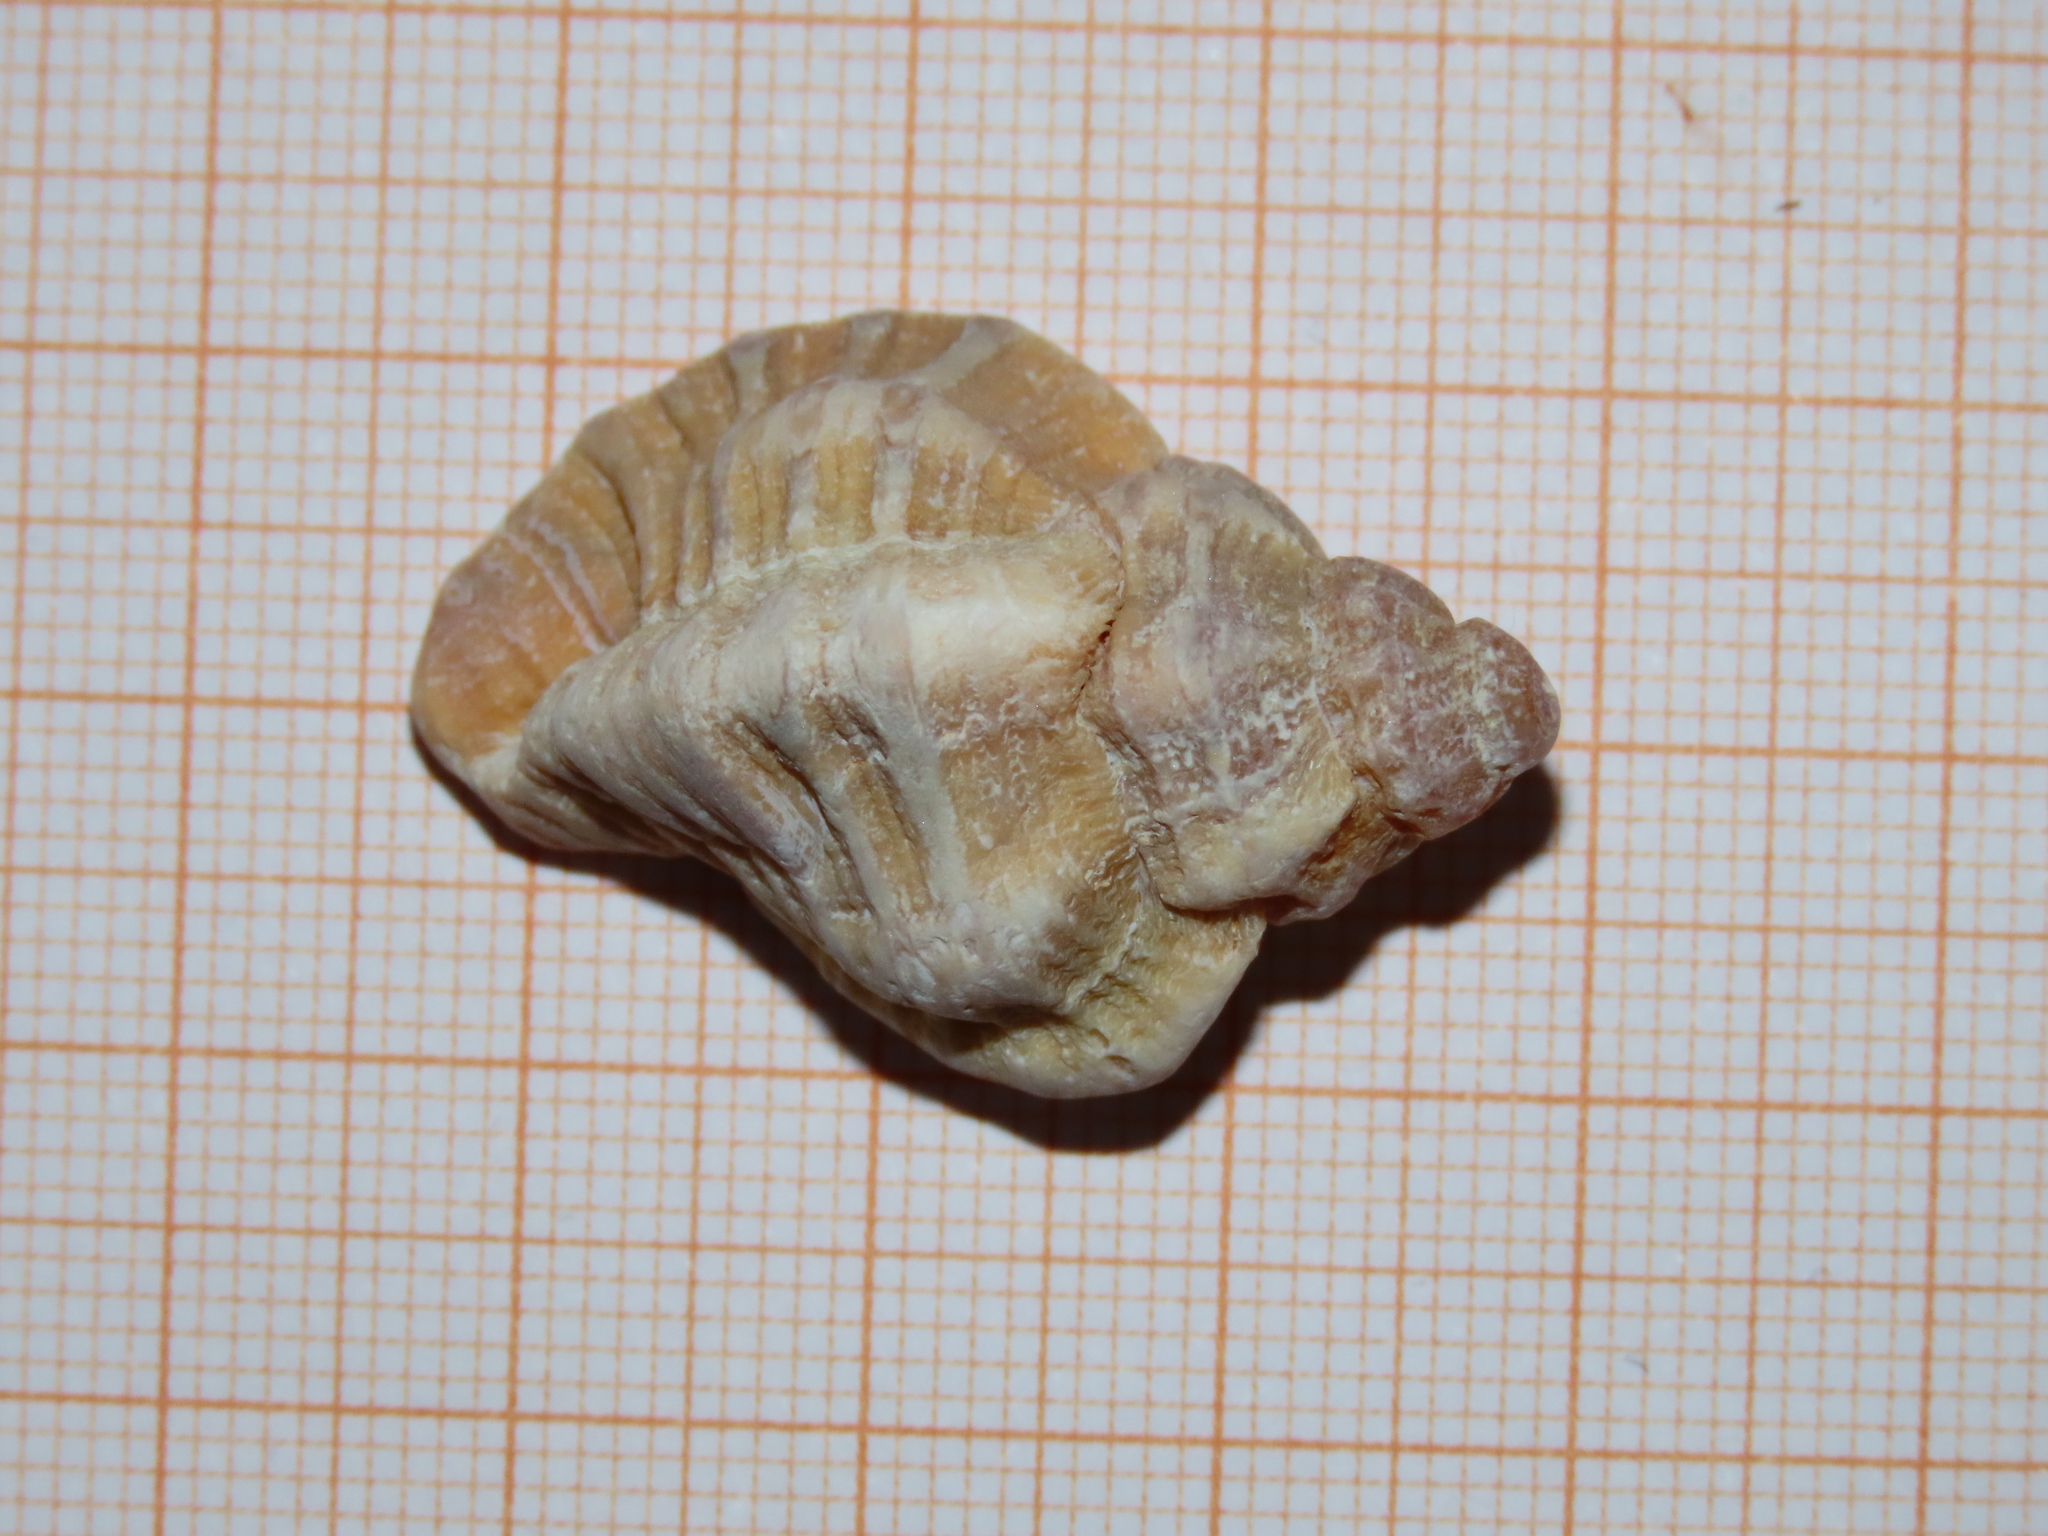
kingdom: Animalia
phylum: Mollusca
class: Gastropoda
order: Neogastropoda
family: Muricidae
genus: Ocenebra
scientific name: Ocenebra erinaceus
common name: European sting winkle
